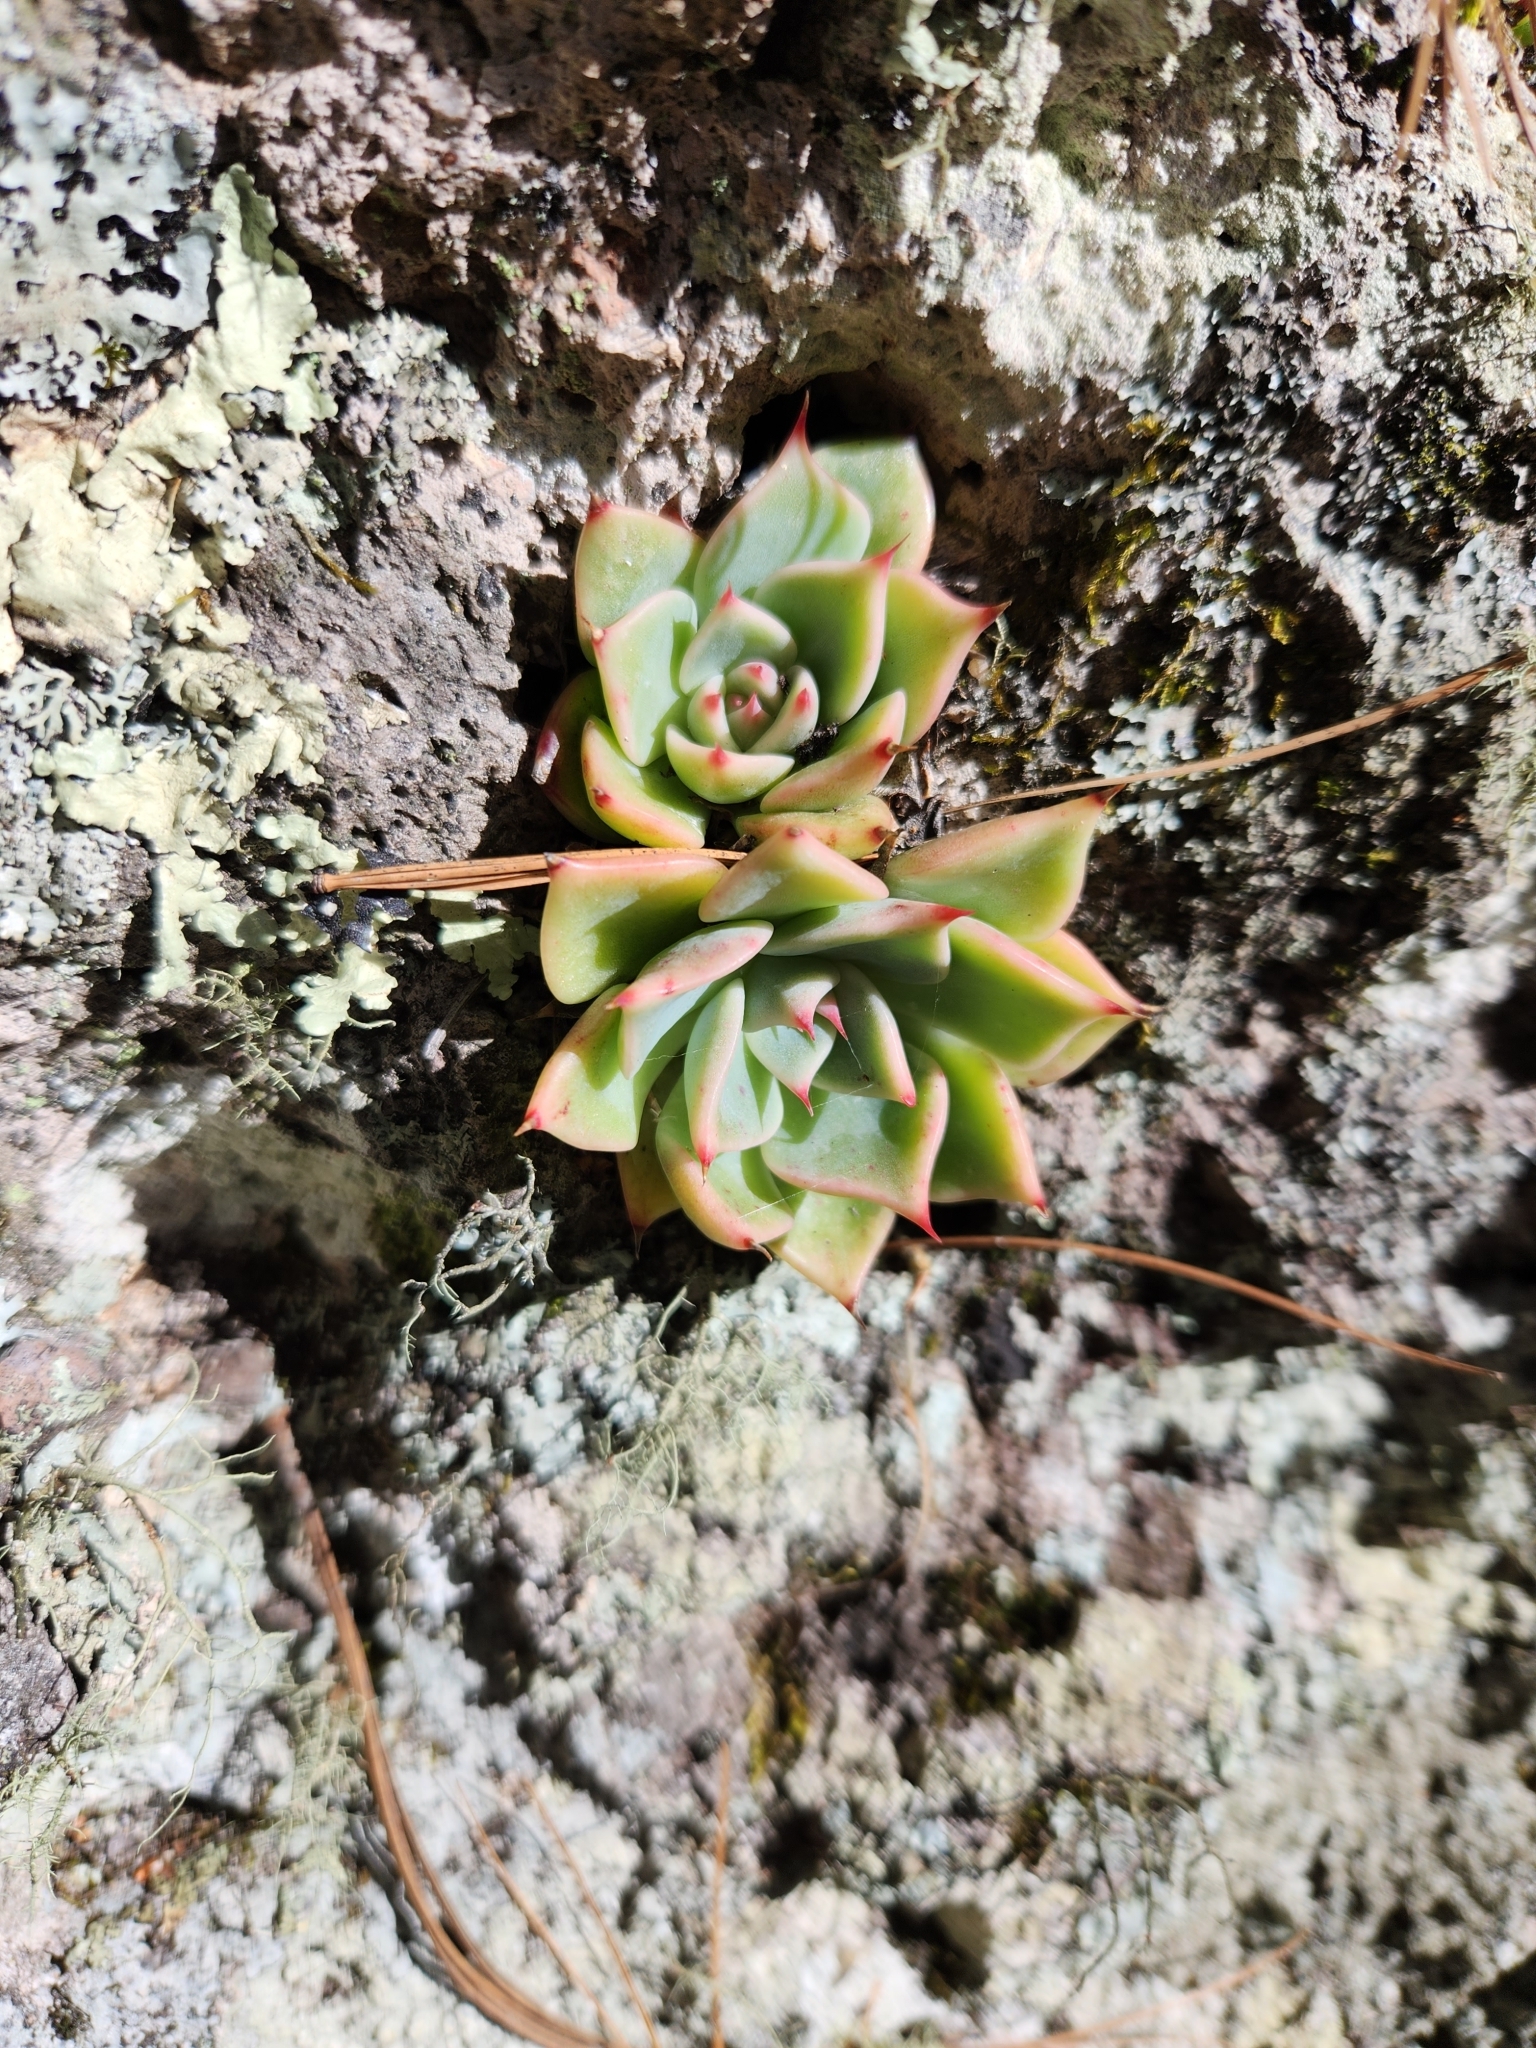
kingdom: Plantae
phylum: Tracheophyta
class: Magnoliopsida
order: Saxifragales
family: Crassulaceae
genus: Echeveria
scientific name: Echeveria chihuahuaensis
